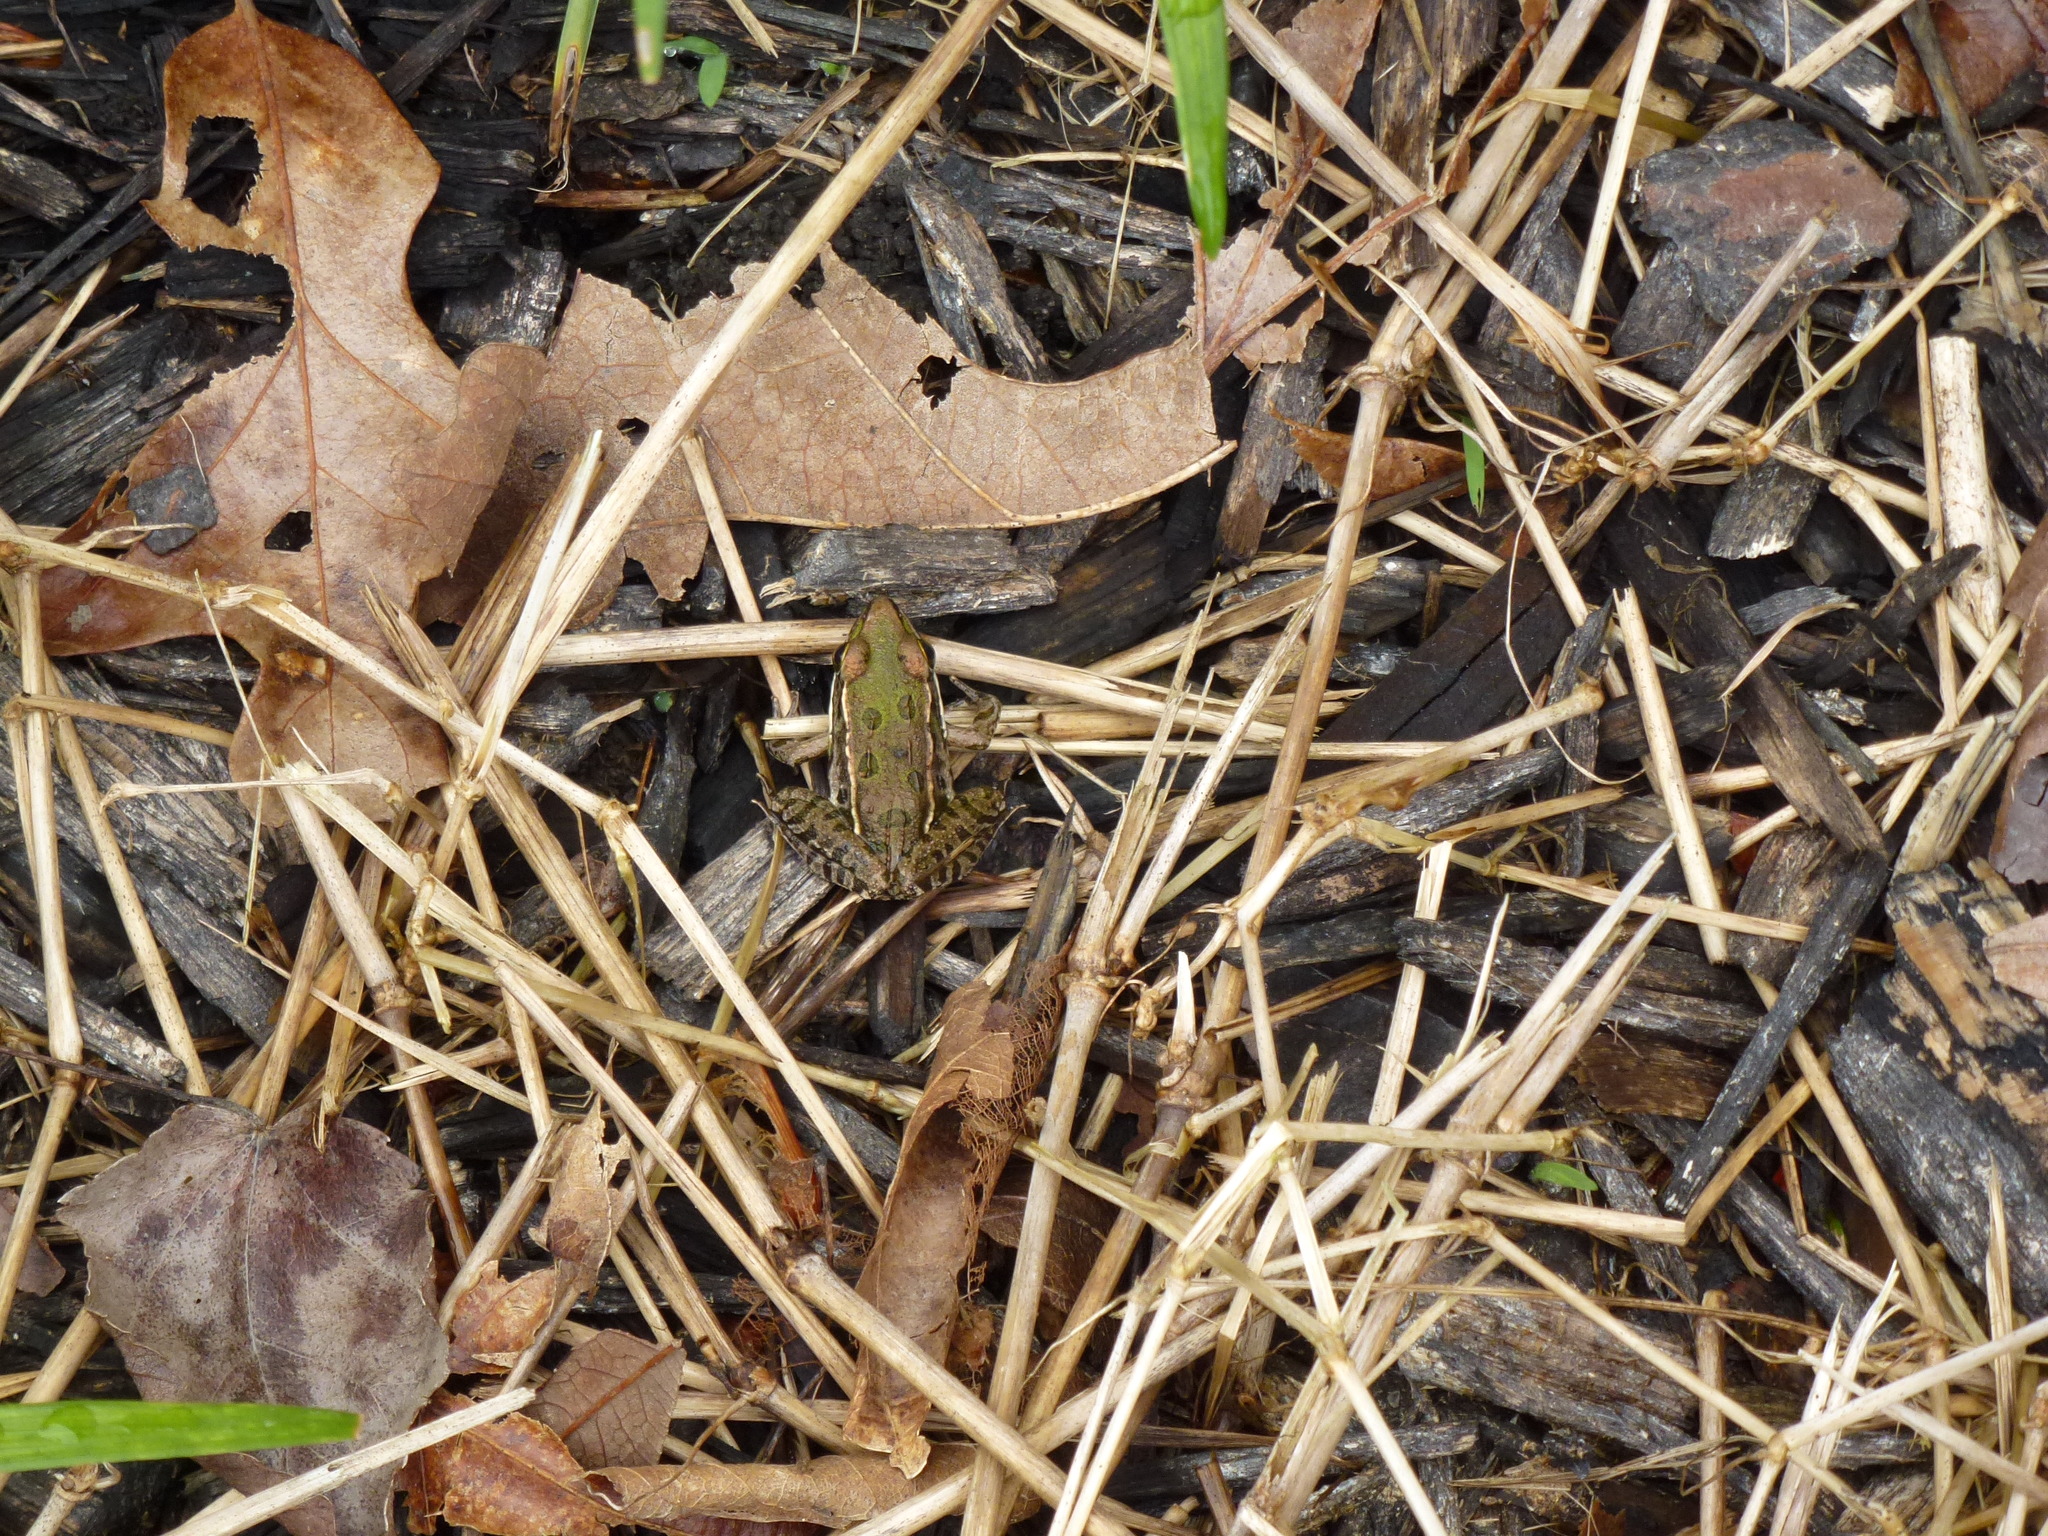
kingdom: Animalia
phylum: Chordata
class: Amphibia
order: Anura
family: Ranidae
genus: Lithobates
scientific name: Lithobates sphenocephalus
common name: Southern leopard frog
